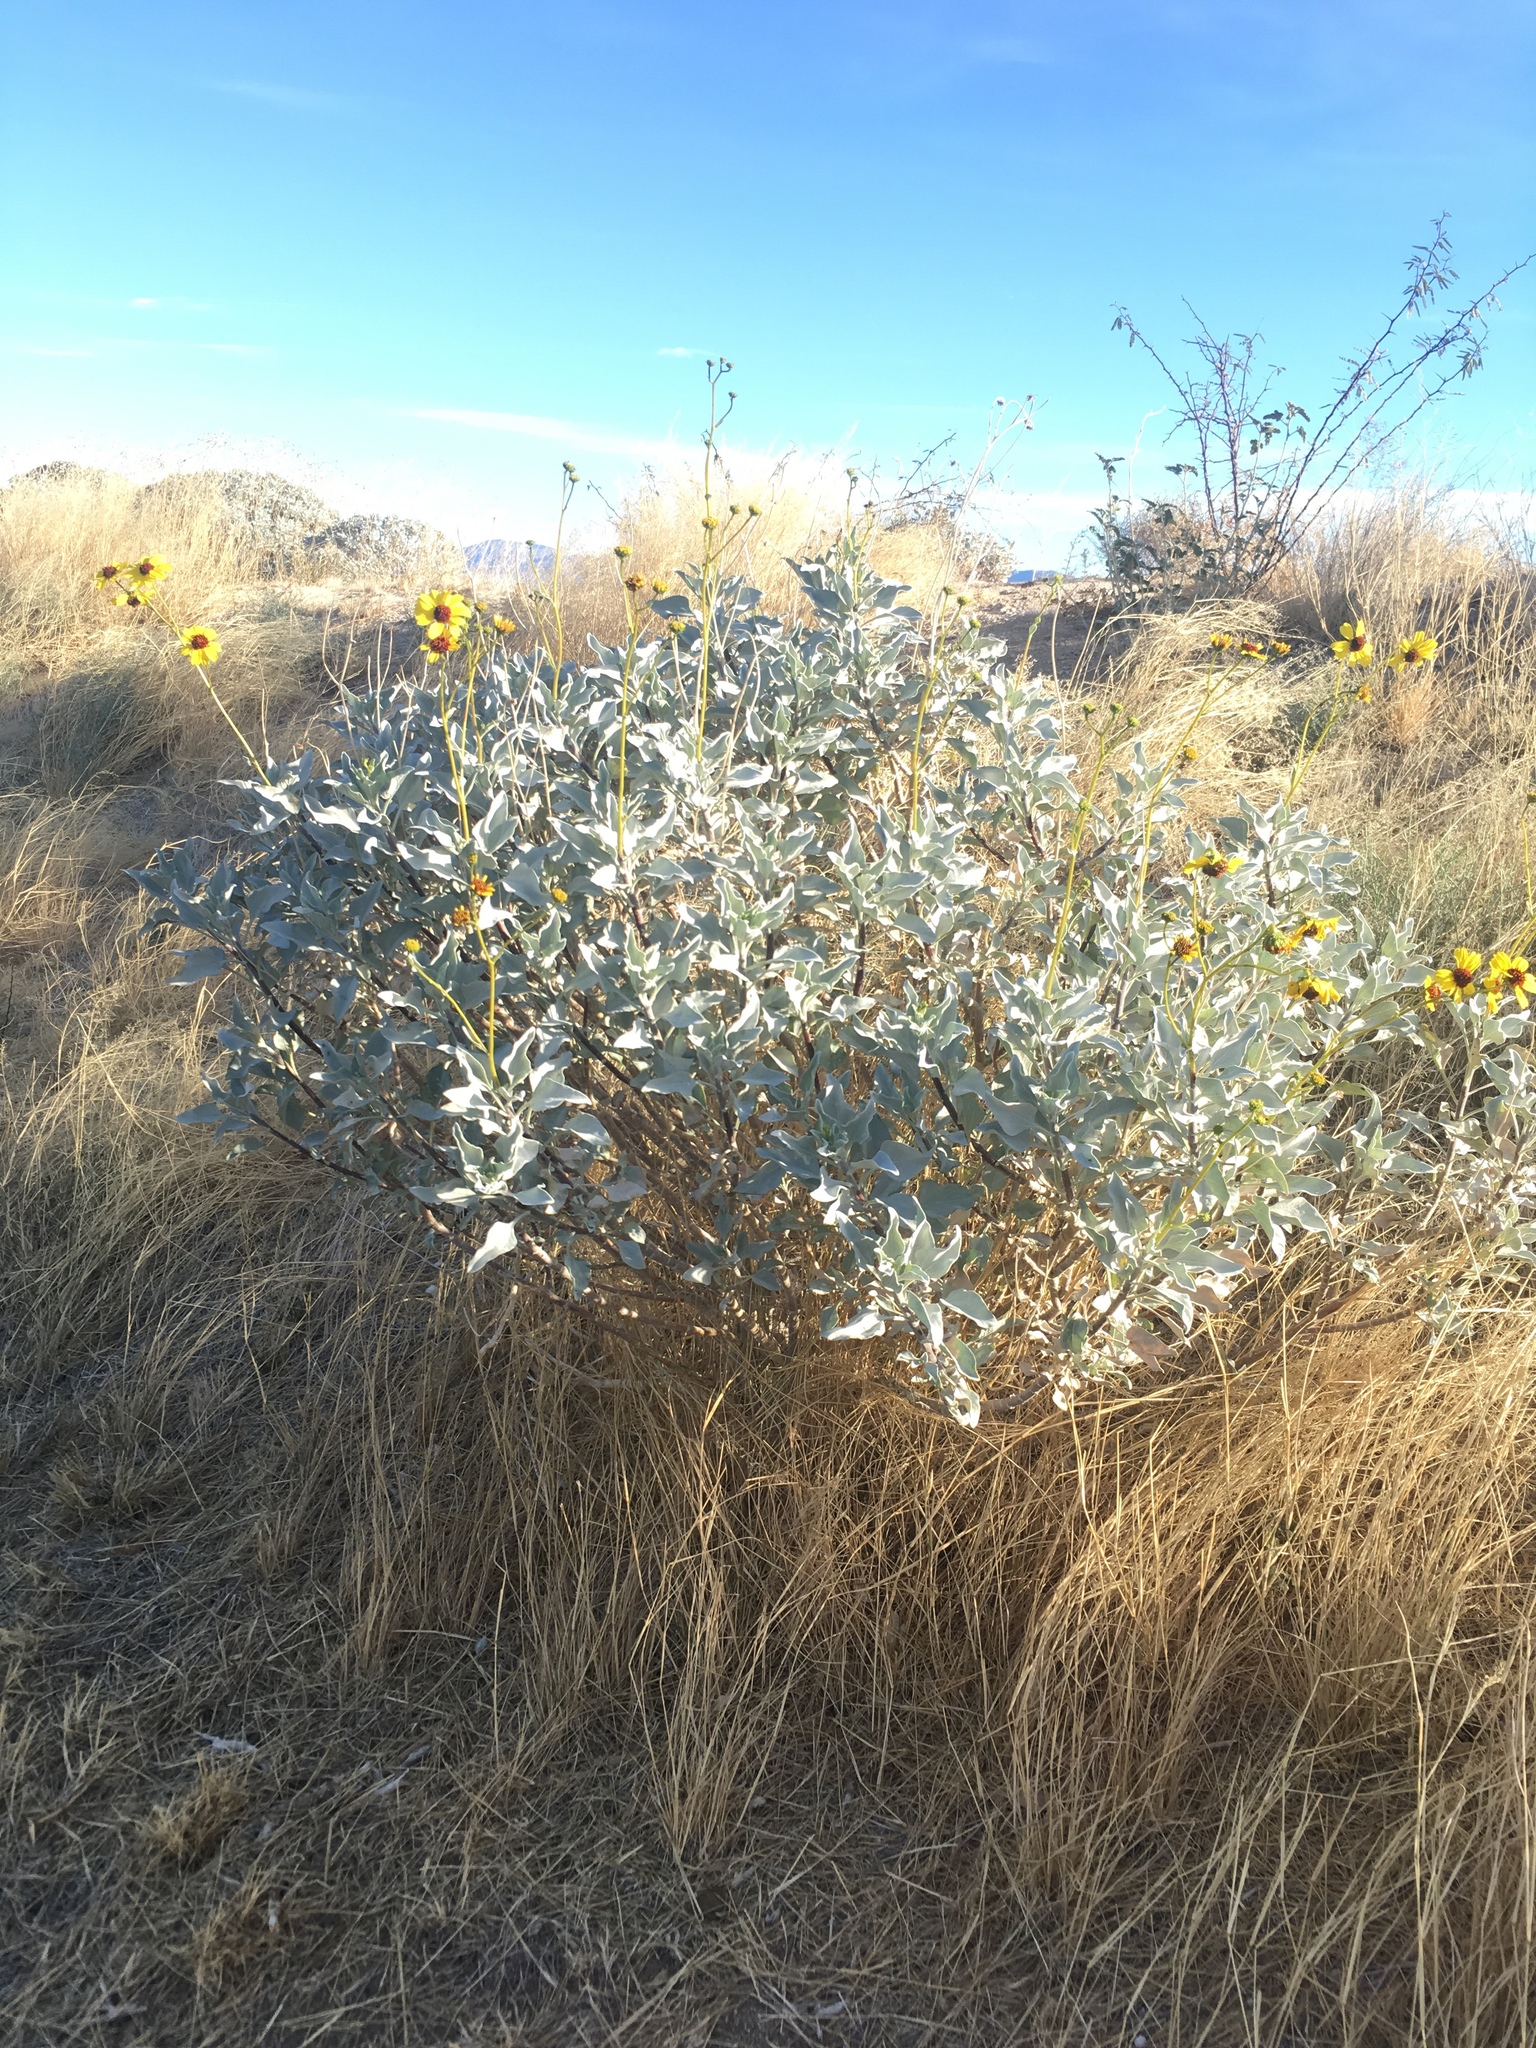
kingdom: Plantae
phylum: Tracheophyta
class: Magnoliopsida
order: Asterales
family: Asteraceae
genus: Encelia
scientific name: Encelia farinosa
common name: Brittlebush
